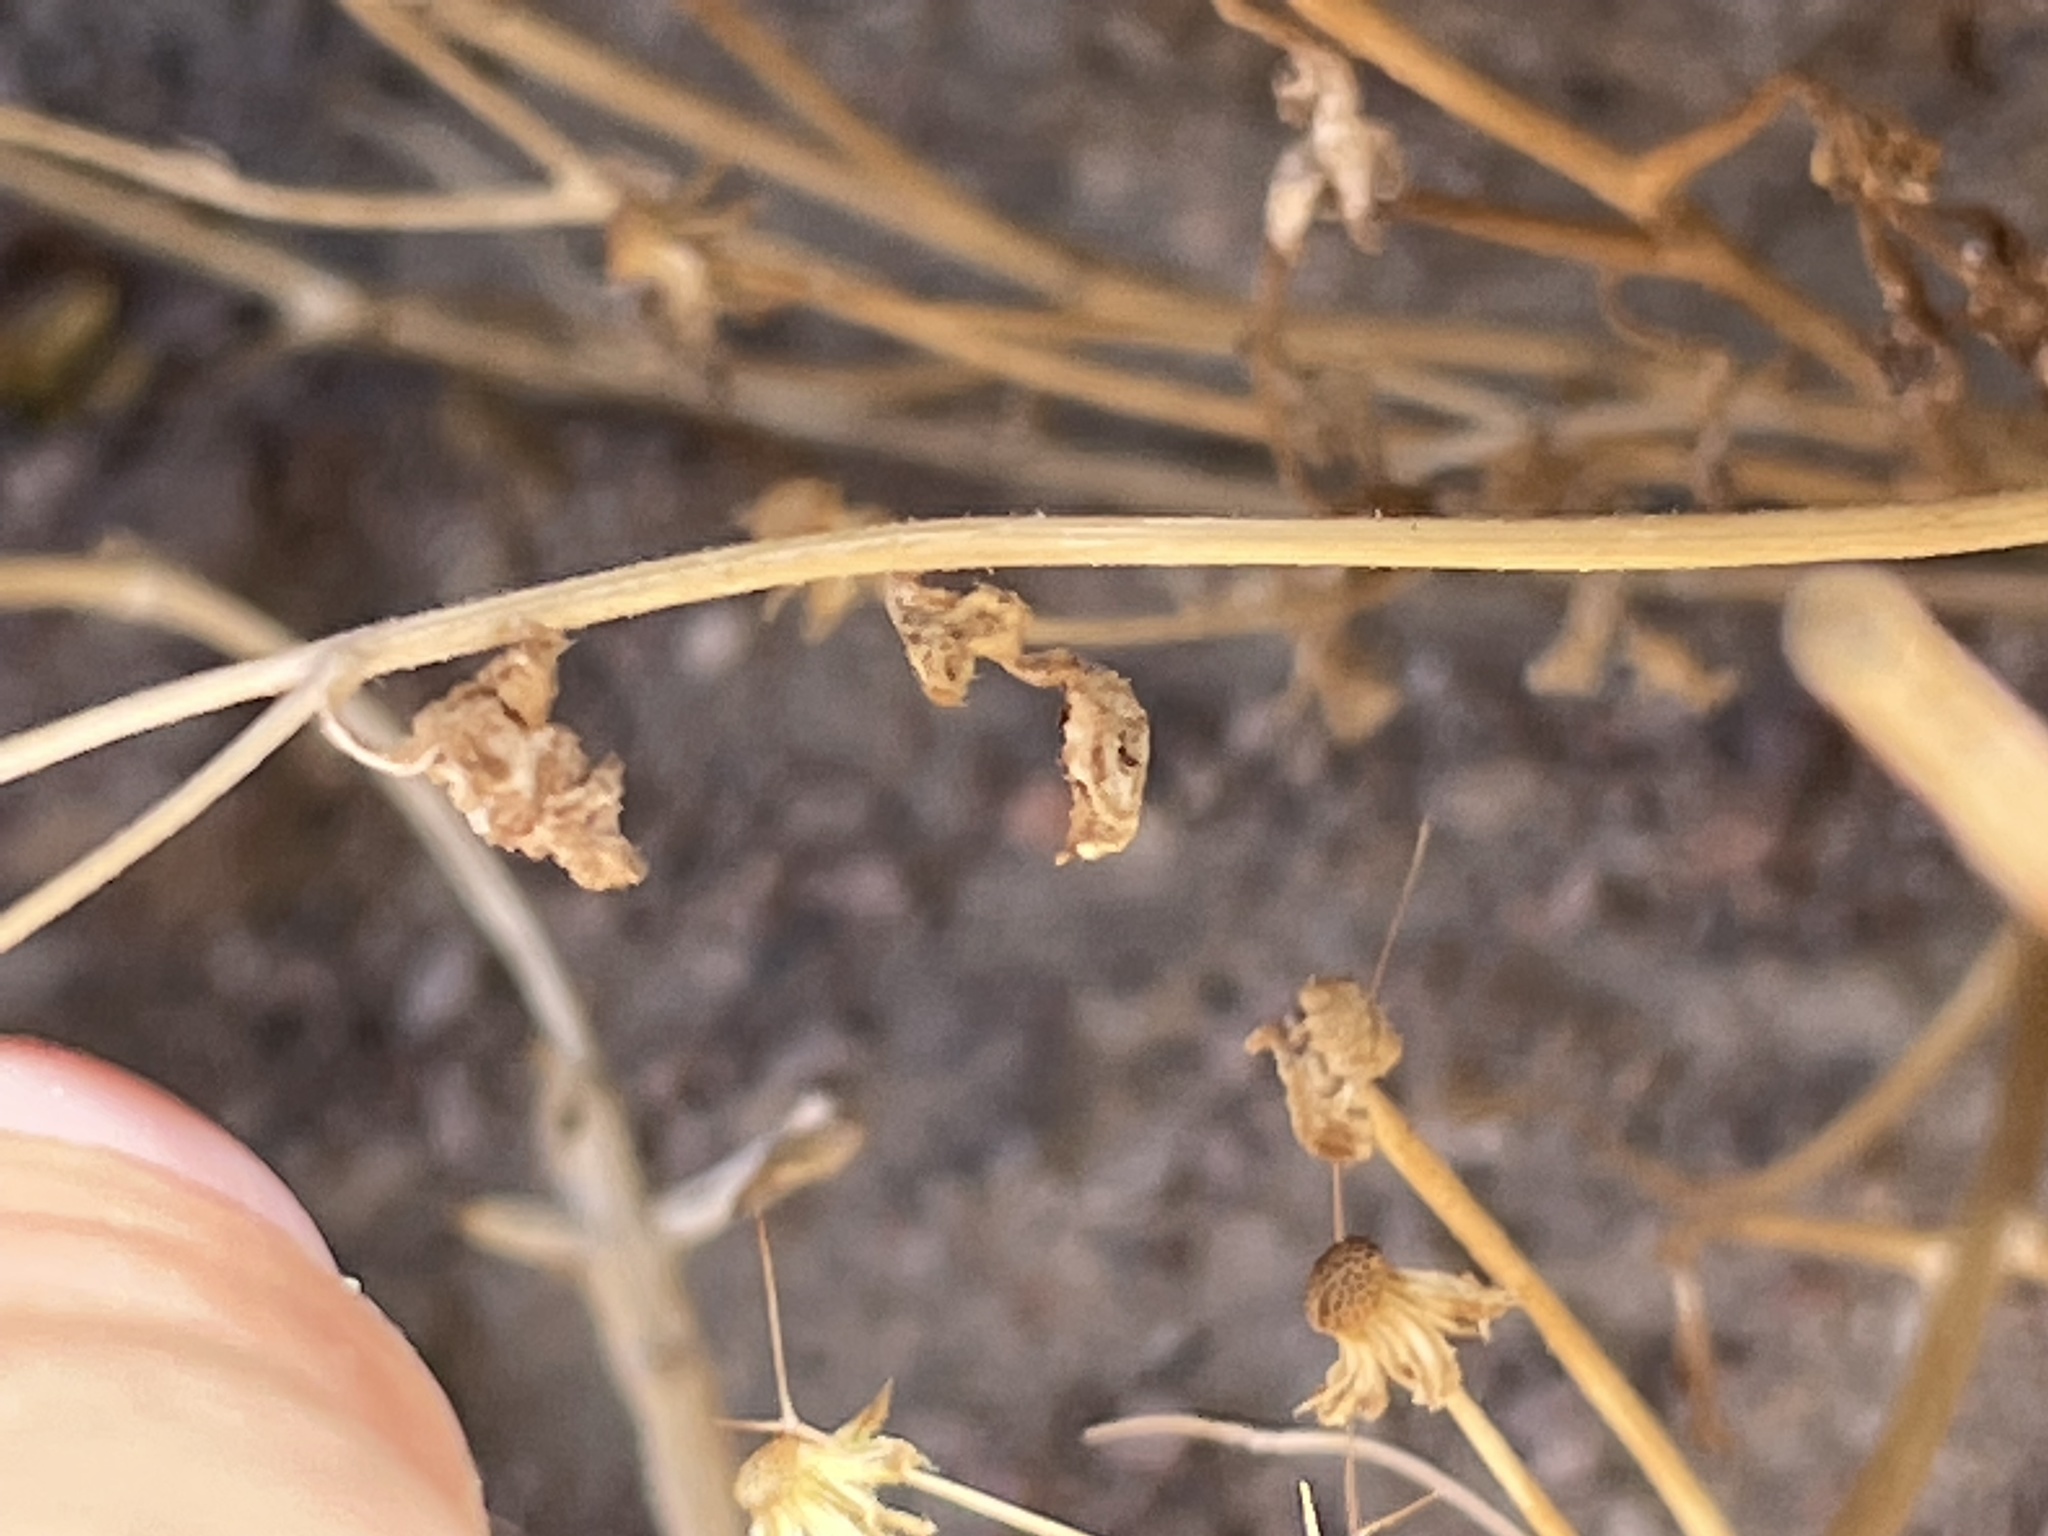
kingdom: Plantae
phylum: Tracheophyta
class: Magnoliopsida
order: Asterales
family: Asteraceae
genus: Laphamia
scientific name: Laphamia emoryi
